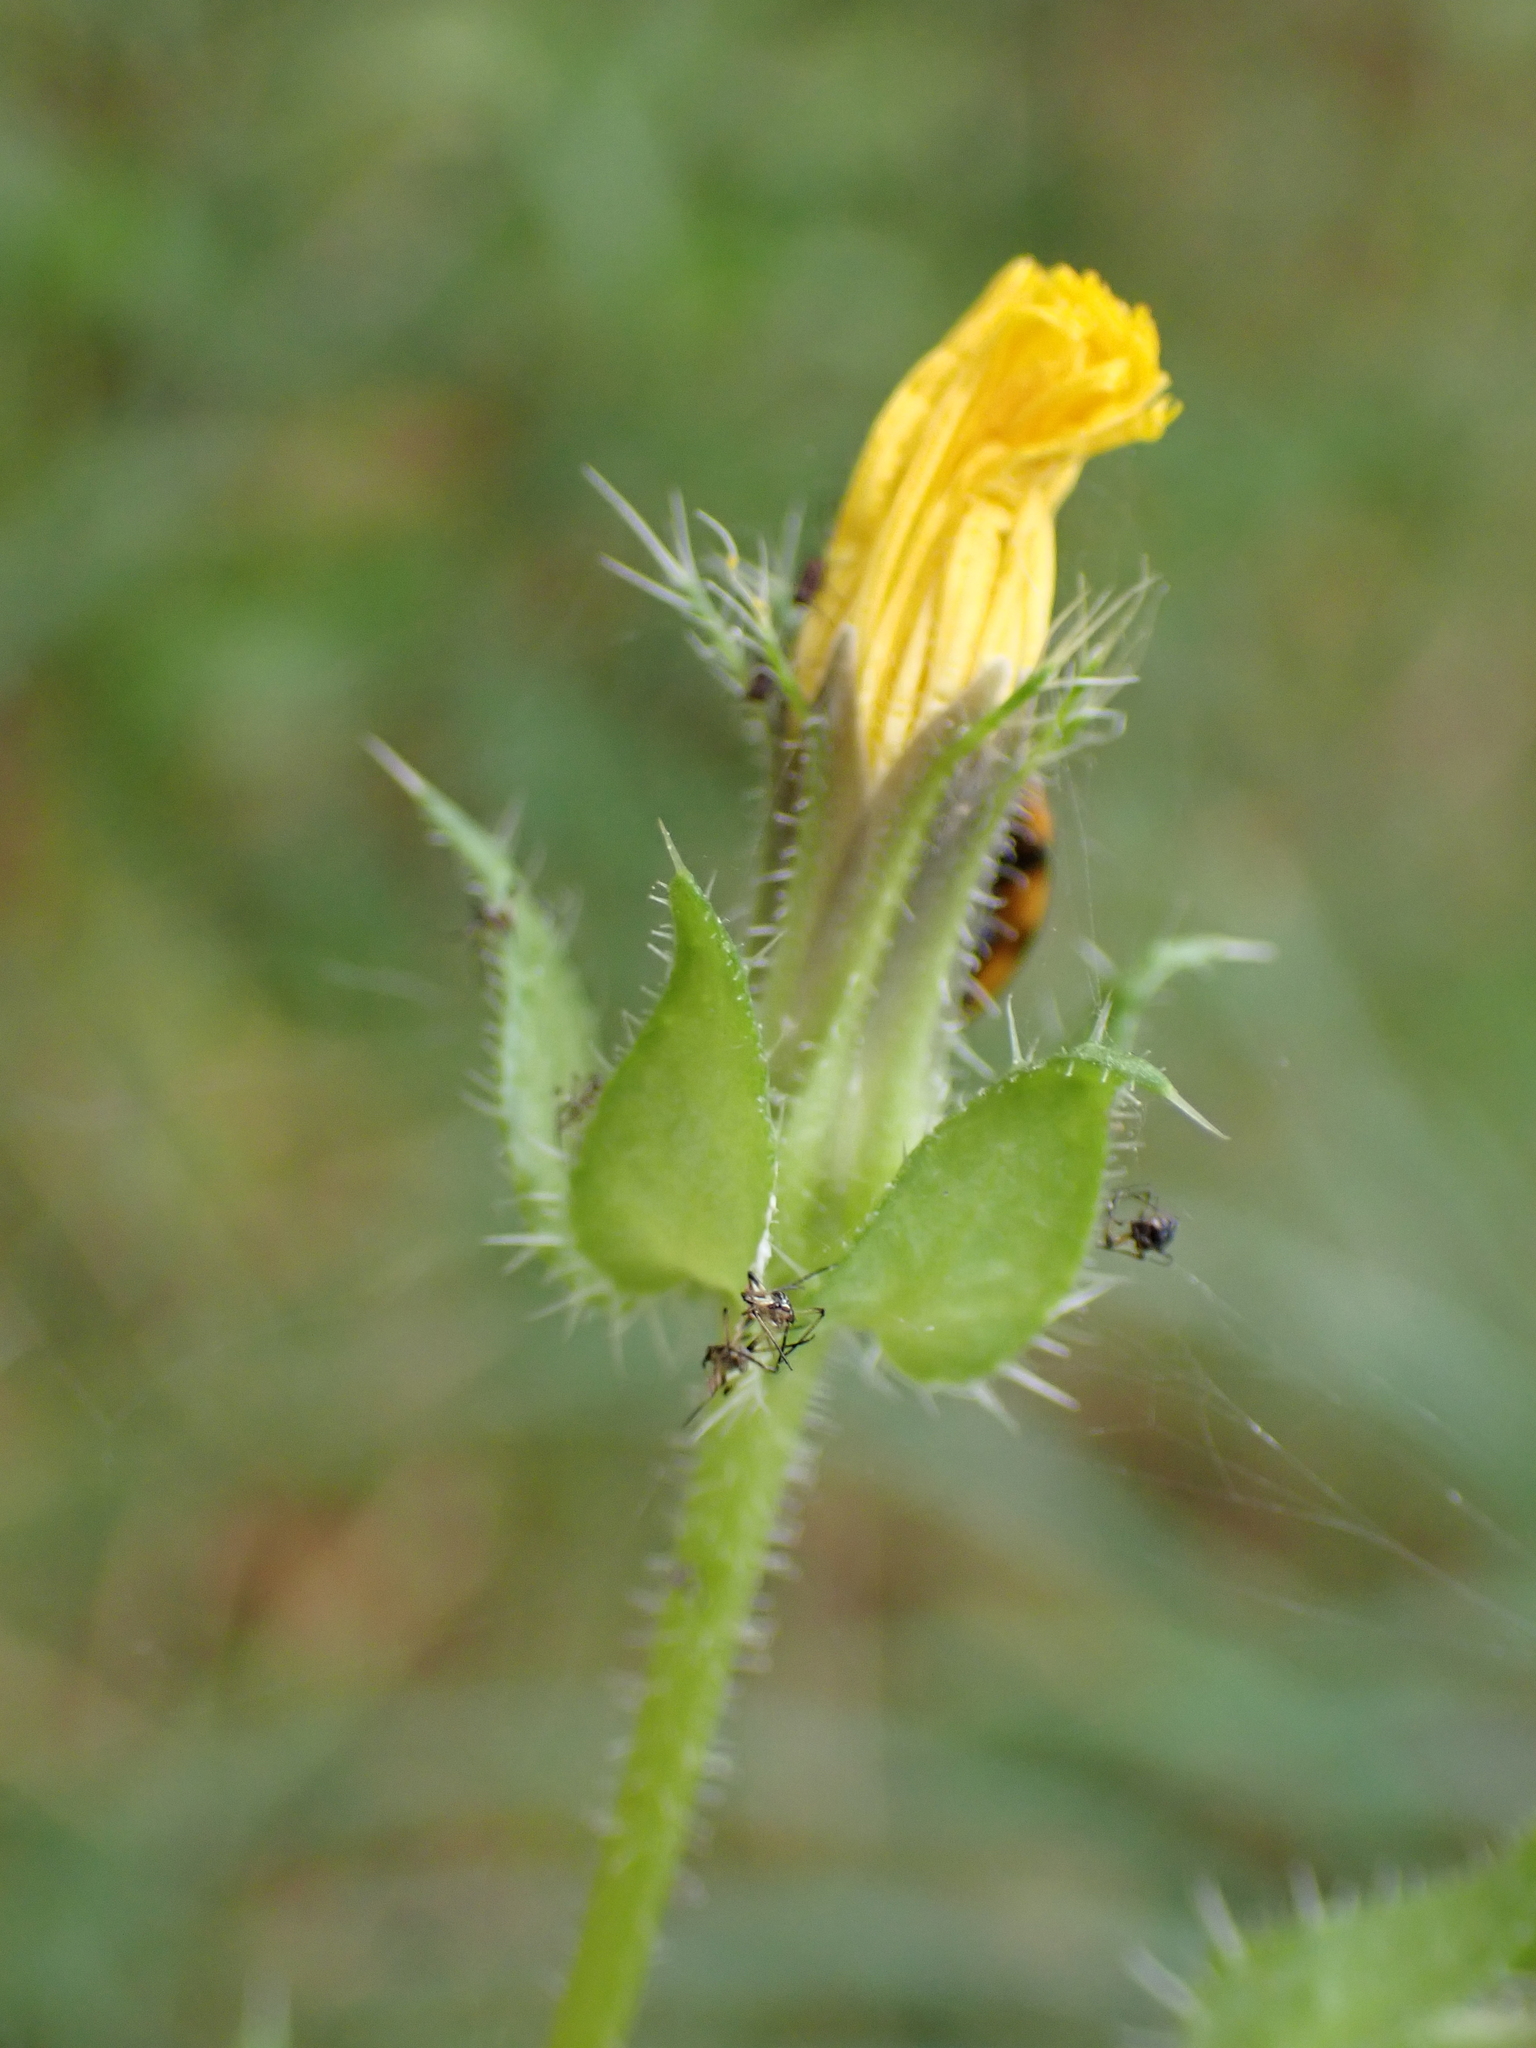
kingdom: Plantae
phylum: Tracheophyta
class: Magnoliopsida
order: Asterales
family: Asteraceae
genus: Helminthotheca
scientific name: Helminthotheca echioides
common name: Ox-tongue
